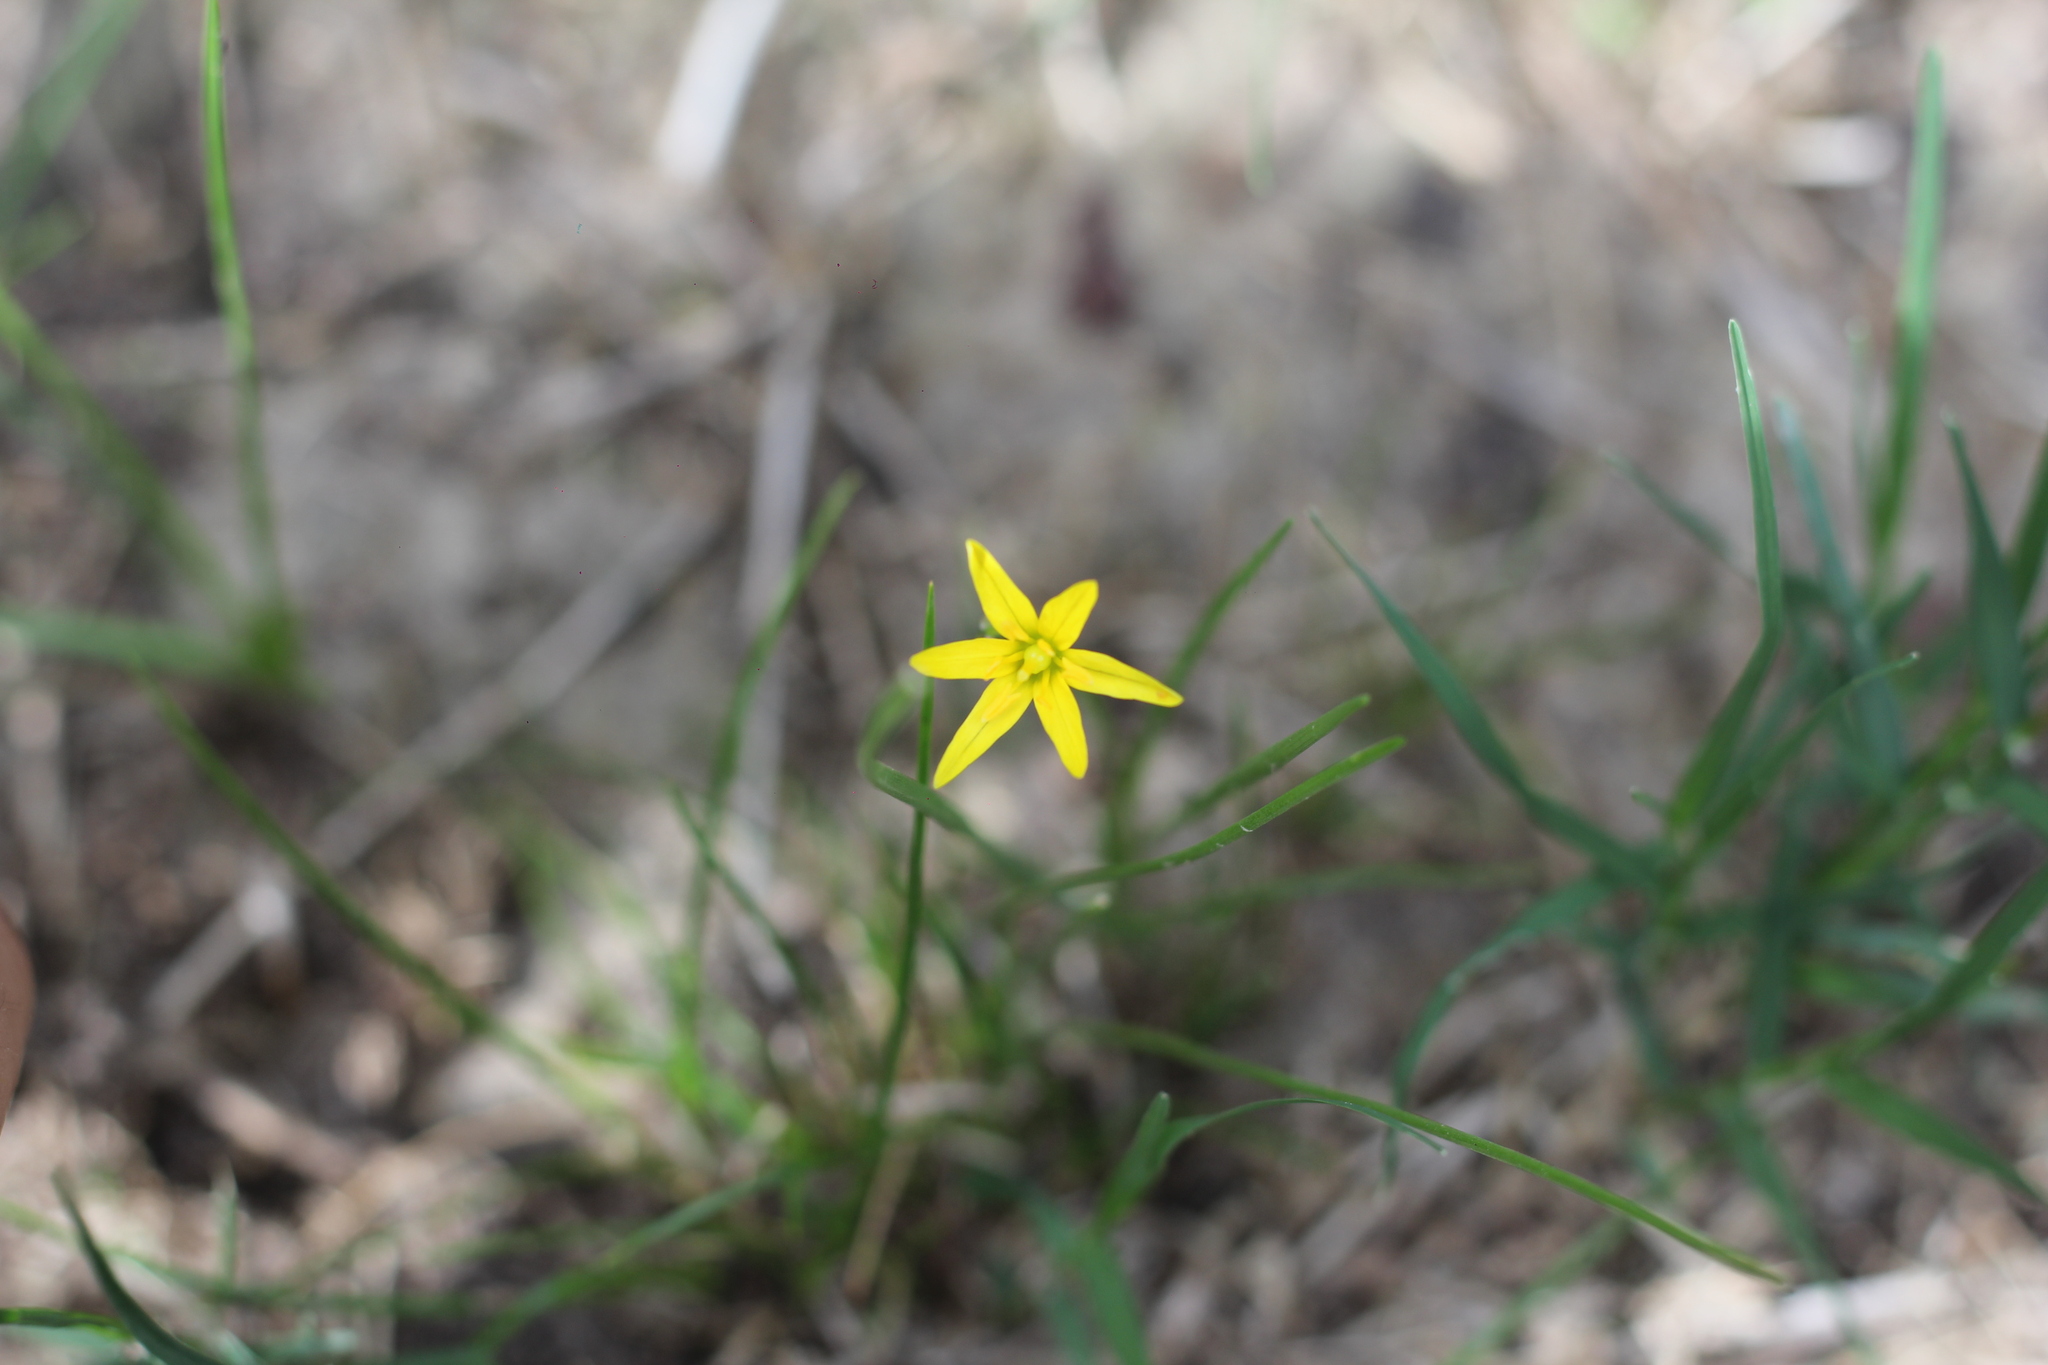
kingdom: Plantae
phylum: Tracheophyta
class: Liliopsida
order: Asparagales
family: Amaryllidaceae
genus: Nothoscordum
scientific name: Nothoscordum montevidense
